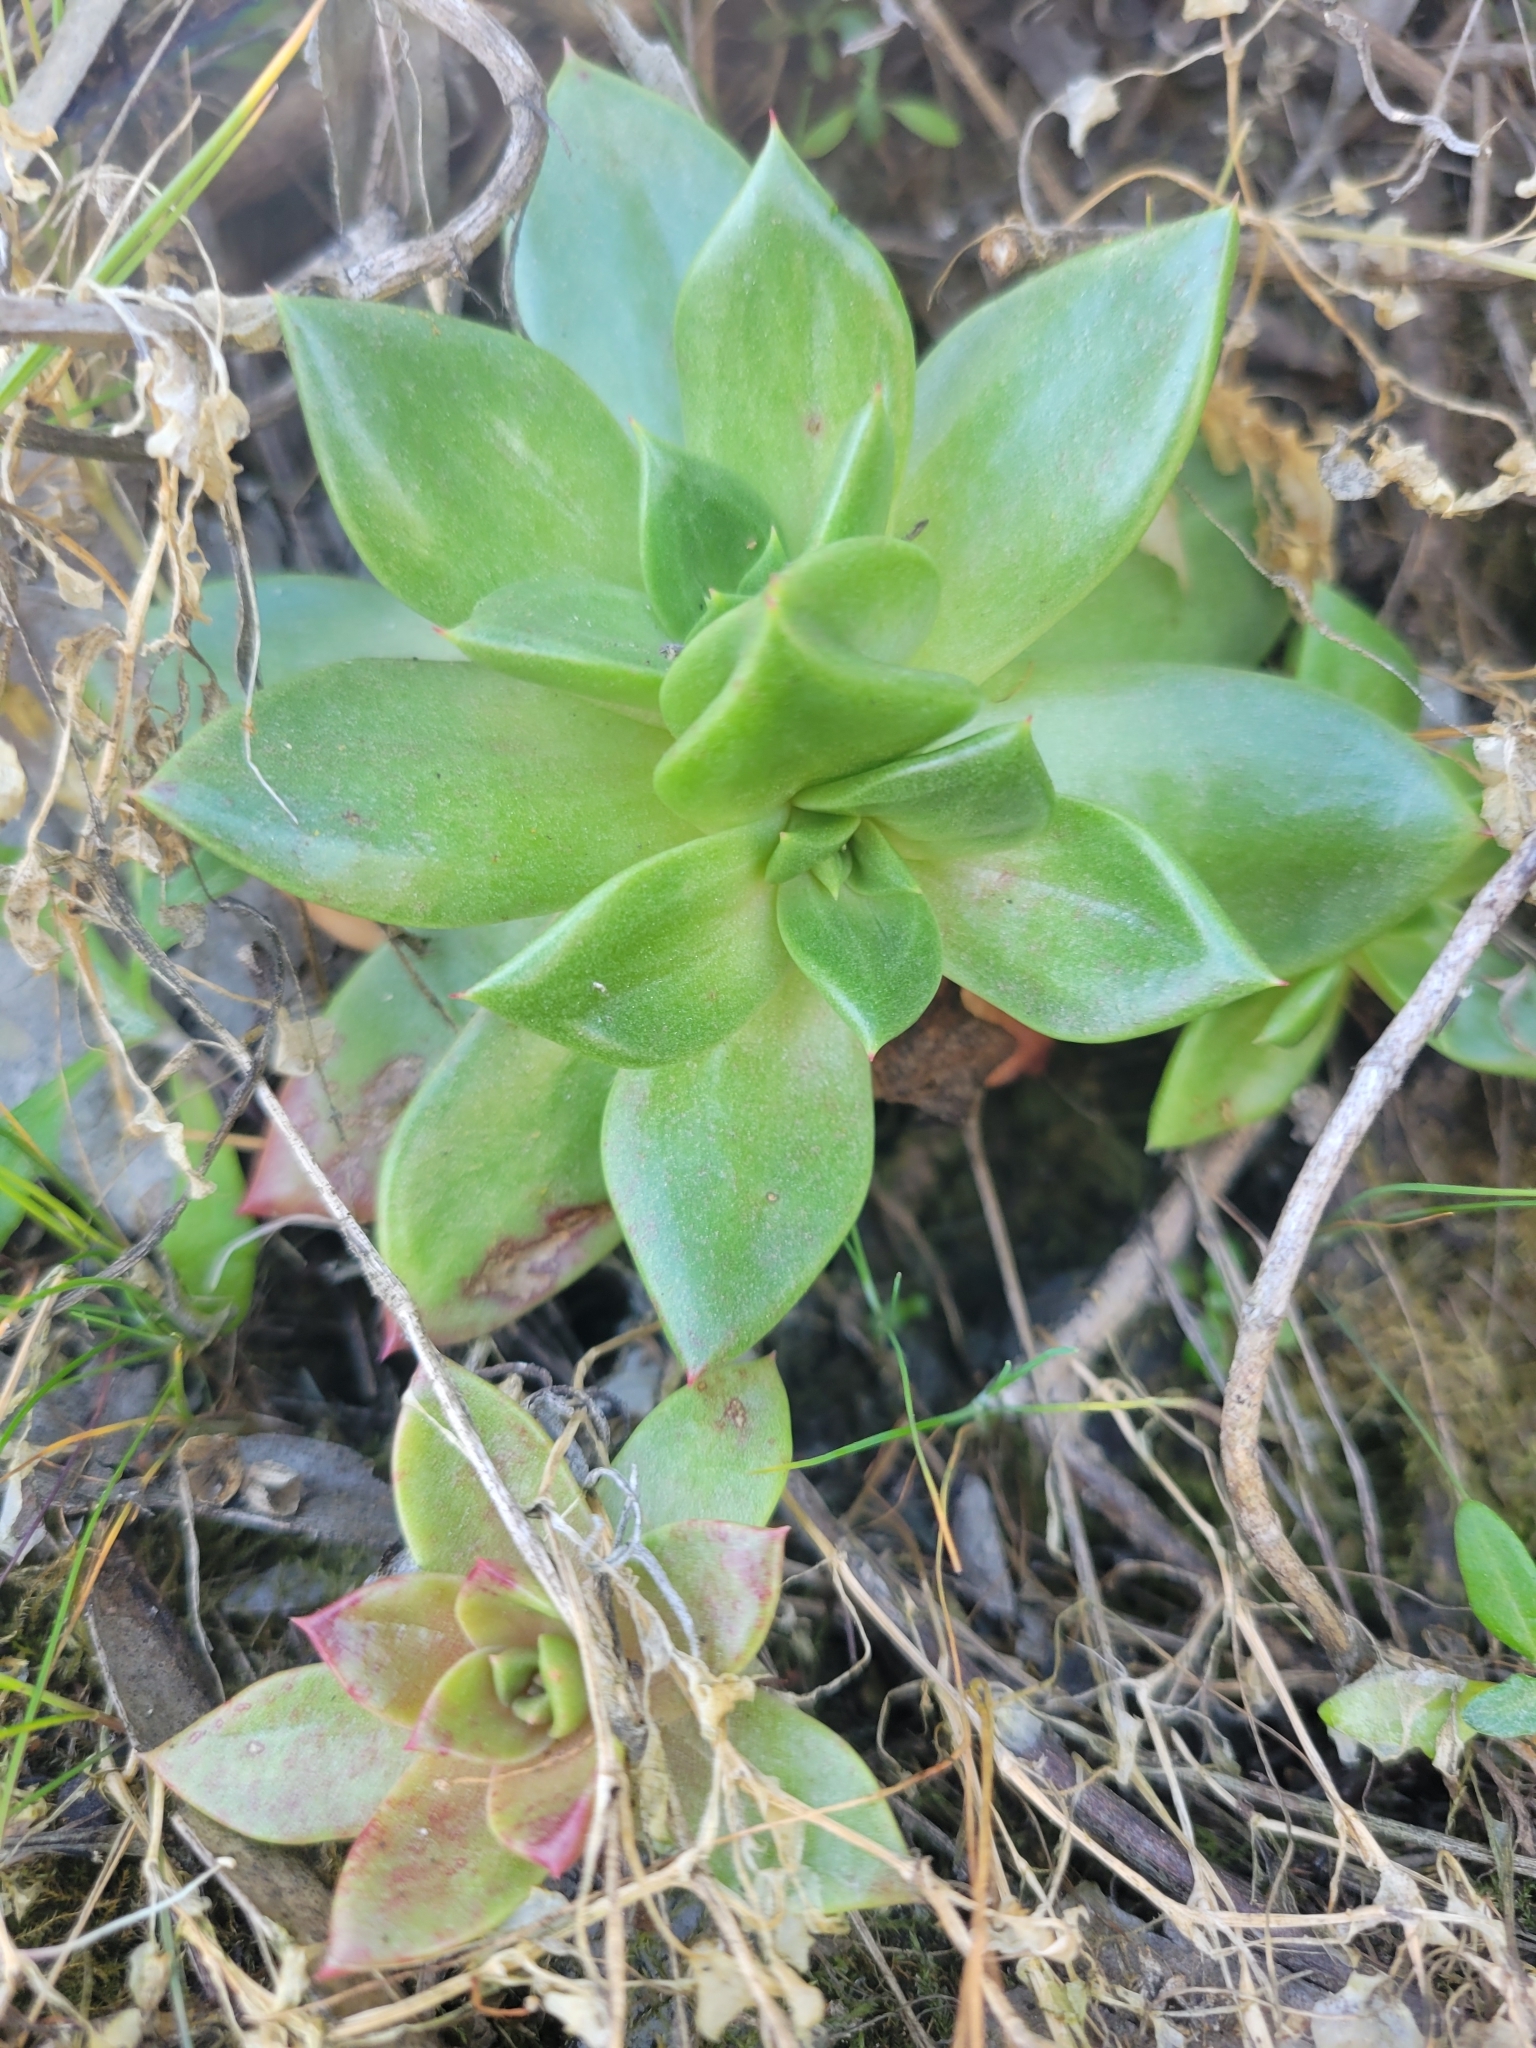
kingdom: Plantae
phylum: Tracheophyta
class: Magnoliopsida
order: Saxifragales
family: Crassulaceae
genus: Dudleya
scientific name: Dudleya farinosa
